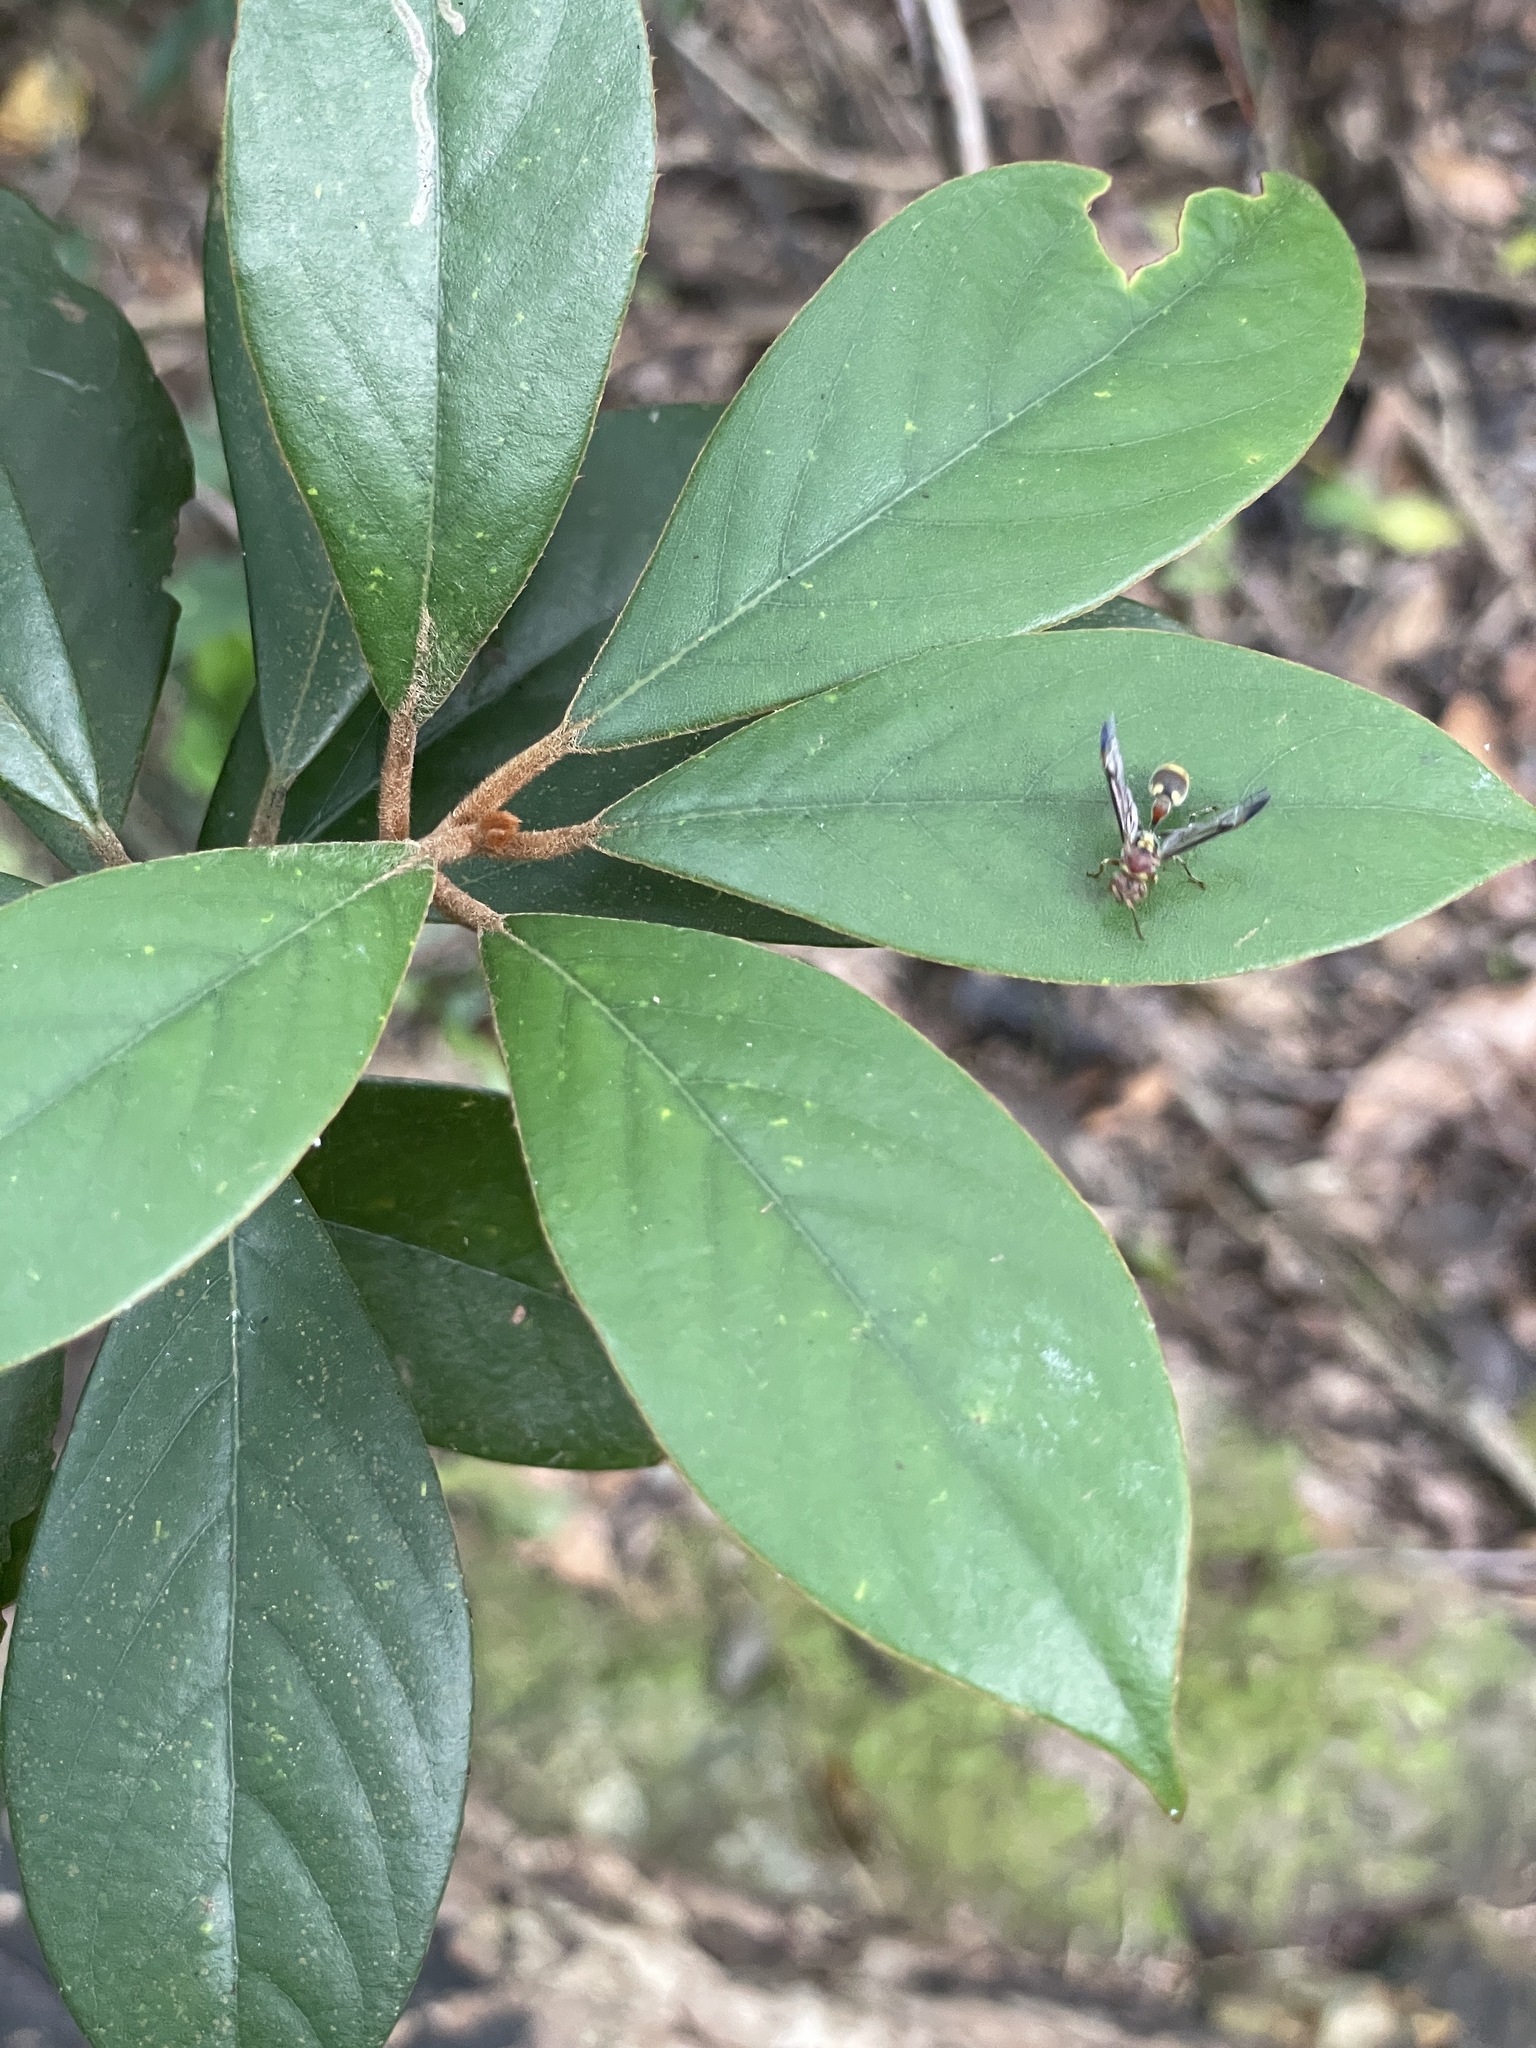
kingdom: Animalia
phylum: Arthropoda
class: Insecta
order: Hymenoptera
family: Vespidae
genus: Ropalidia
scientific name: Ropalidia stigma
